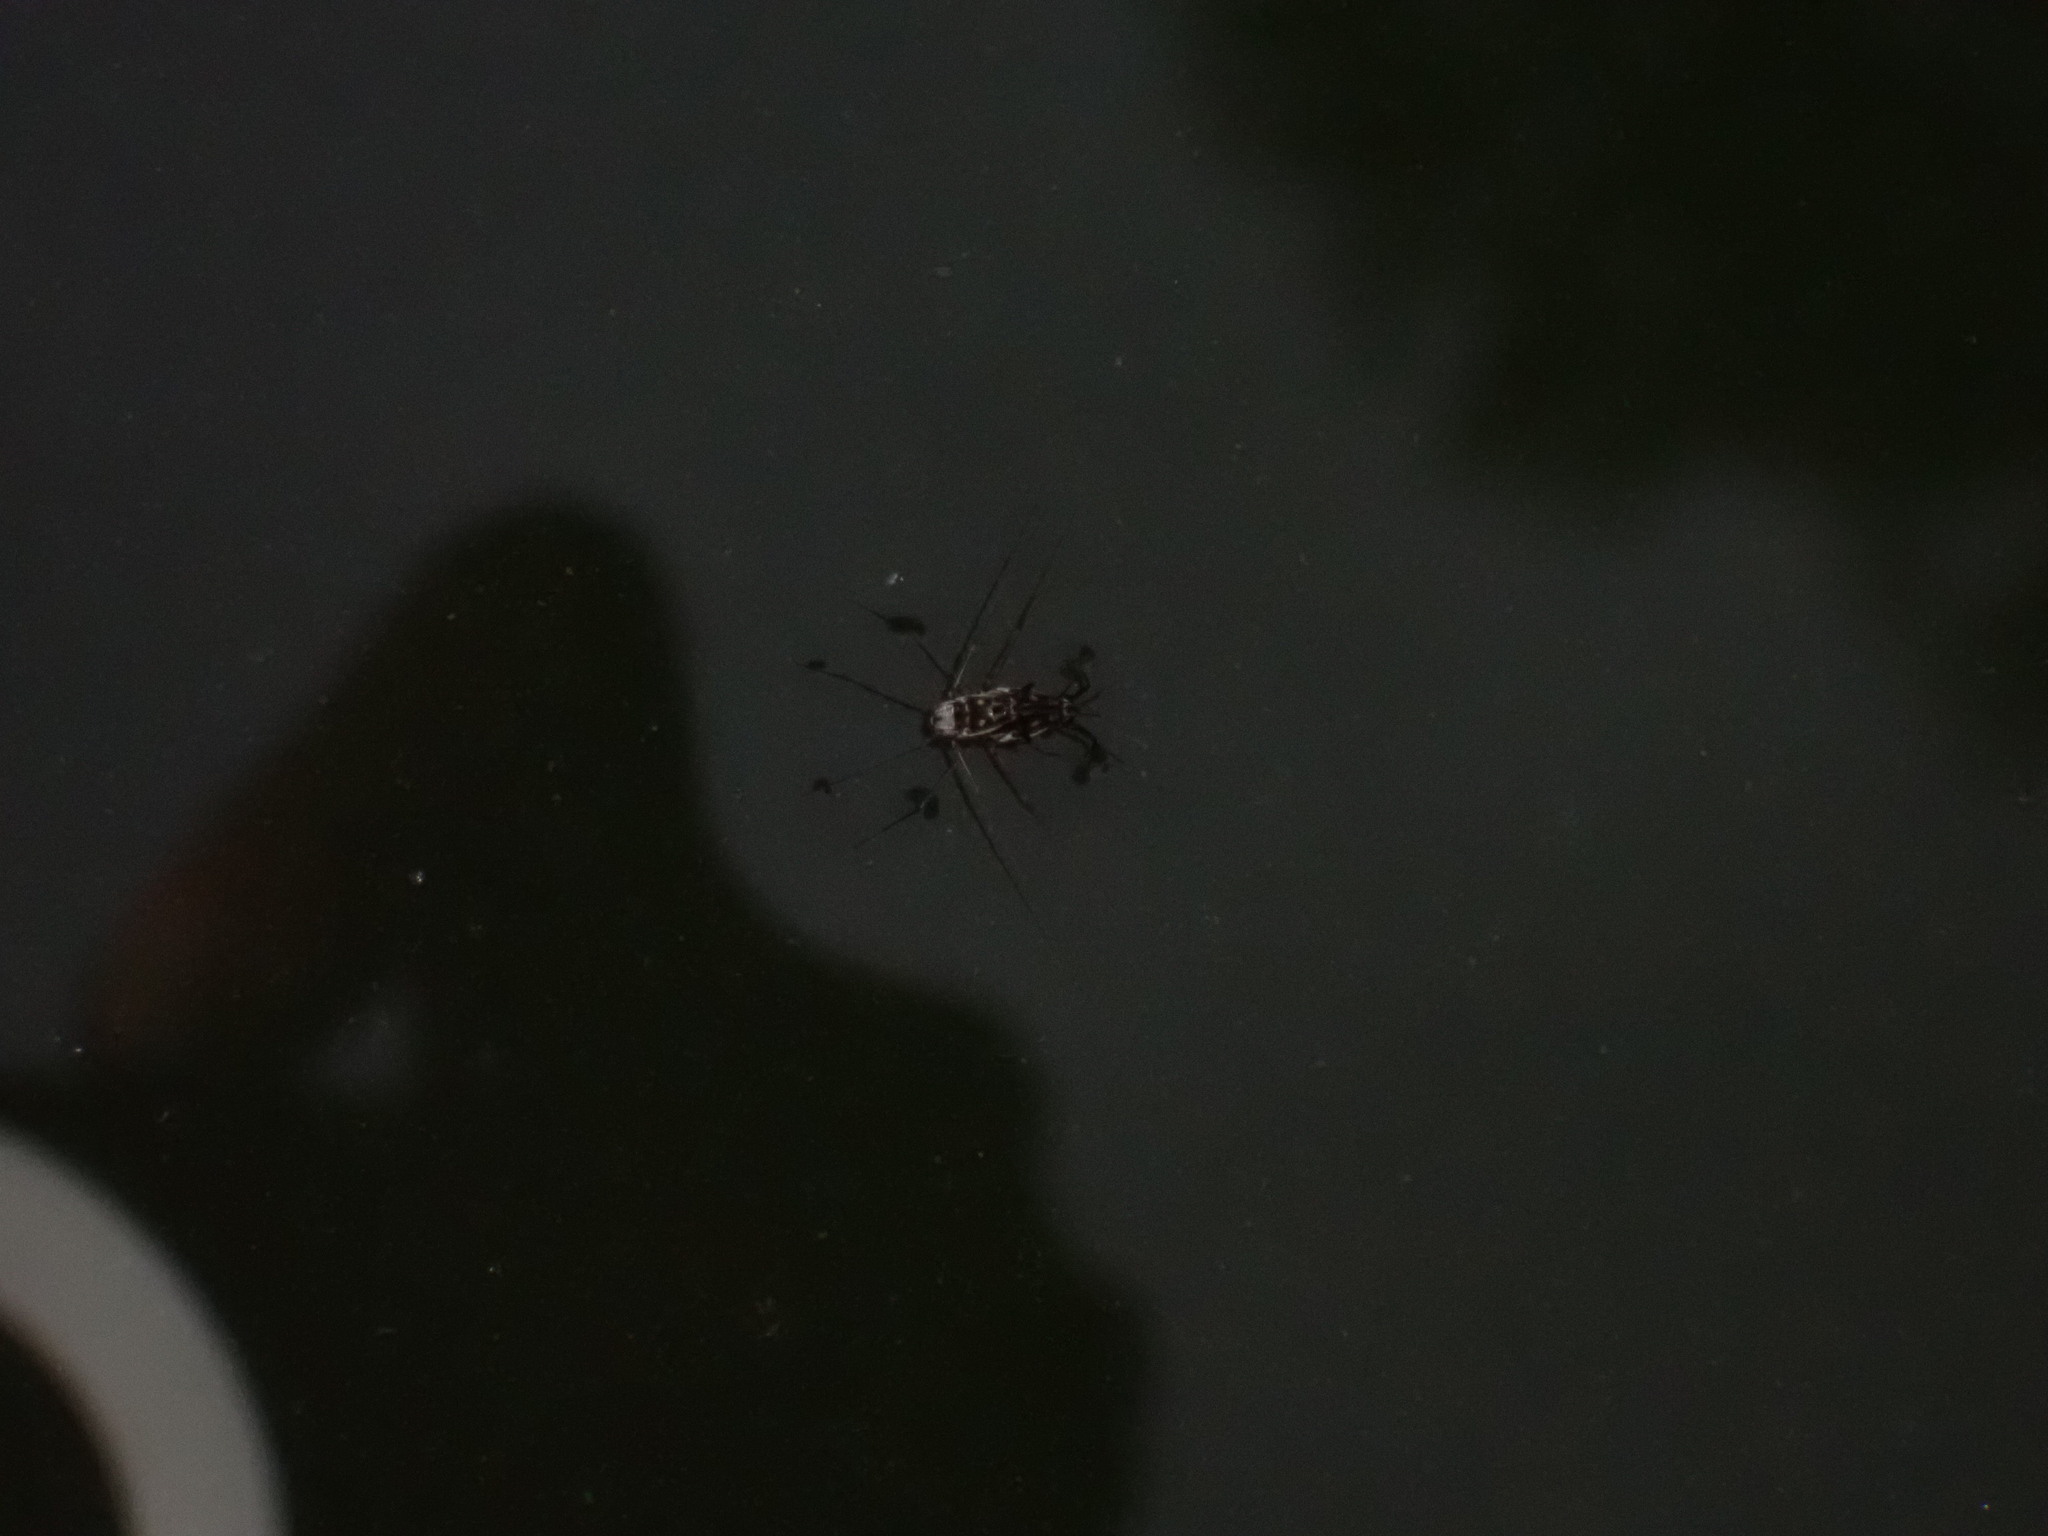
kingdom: Animalia
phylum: Arthropoda
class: Insecta
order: Hemiptera
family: Gerridae
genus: Trepobates
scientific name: Trepobates subnitidus
